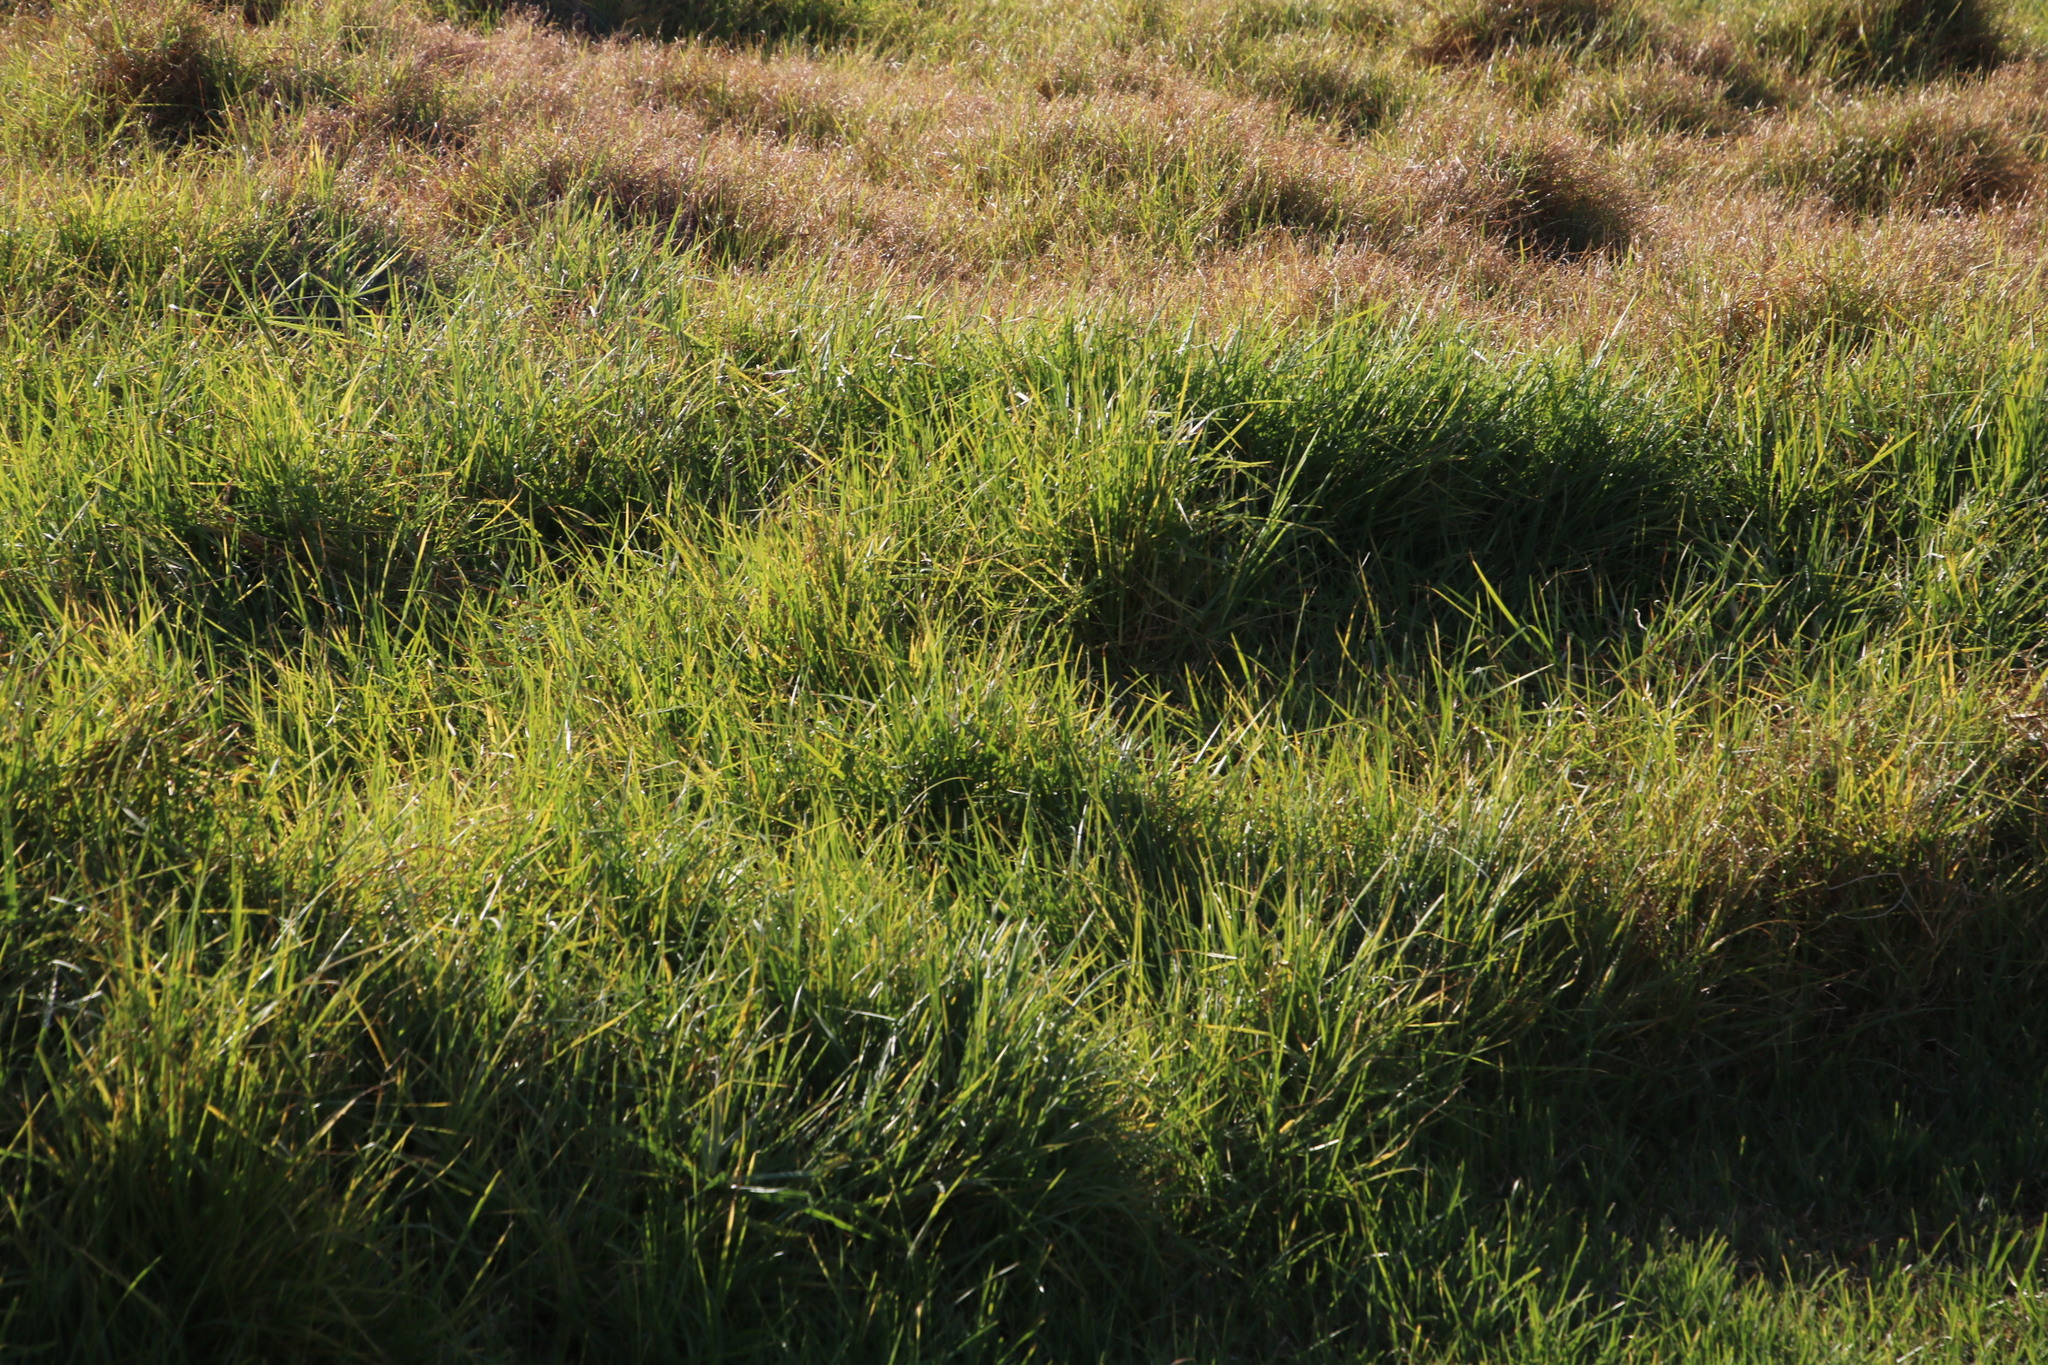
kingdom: Plantae
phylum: Tracheophyta
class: Liliopsida
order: Poales
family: Poaceae
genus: Cenchrus
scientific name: Cenchrus clandestinus
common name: Kikuyugrass
